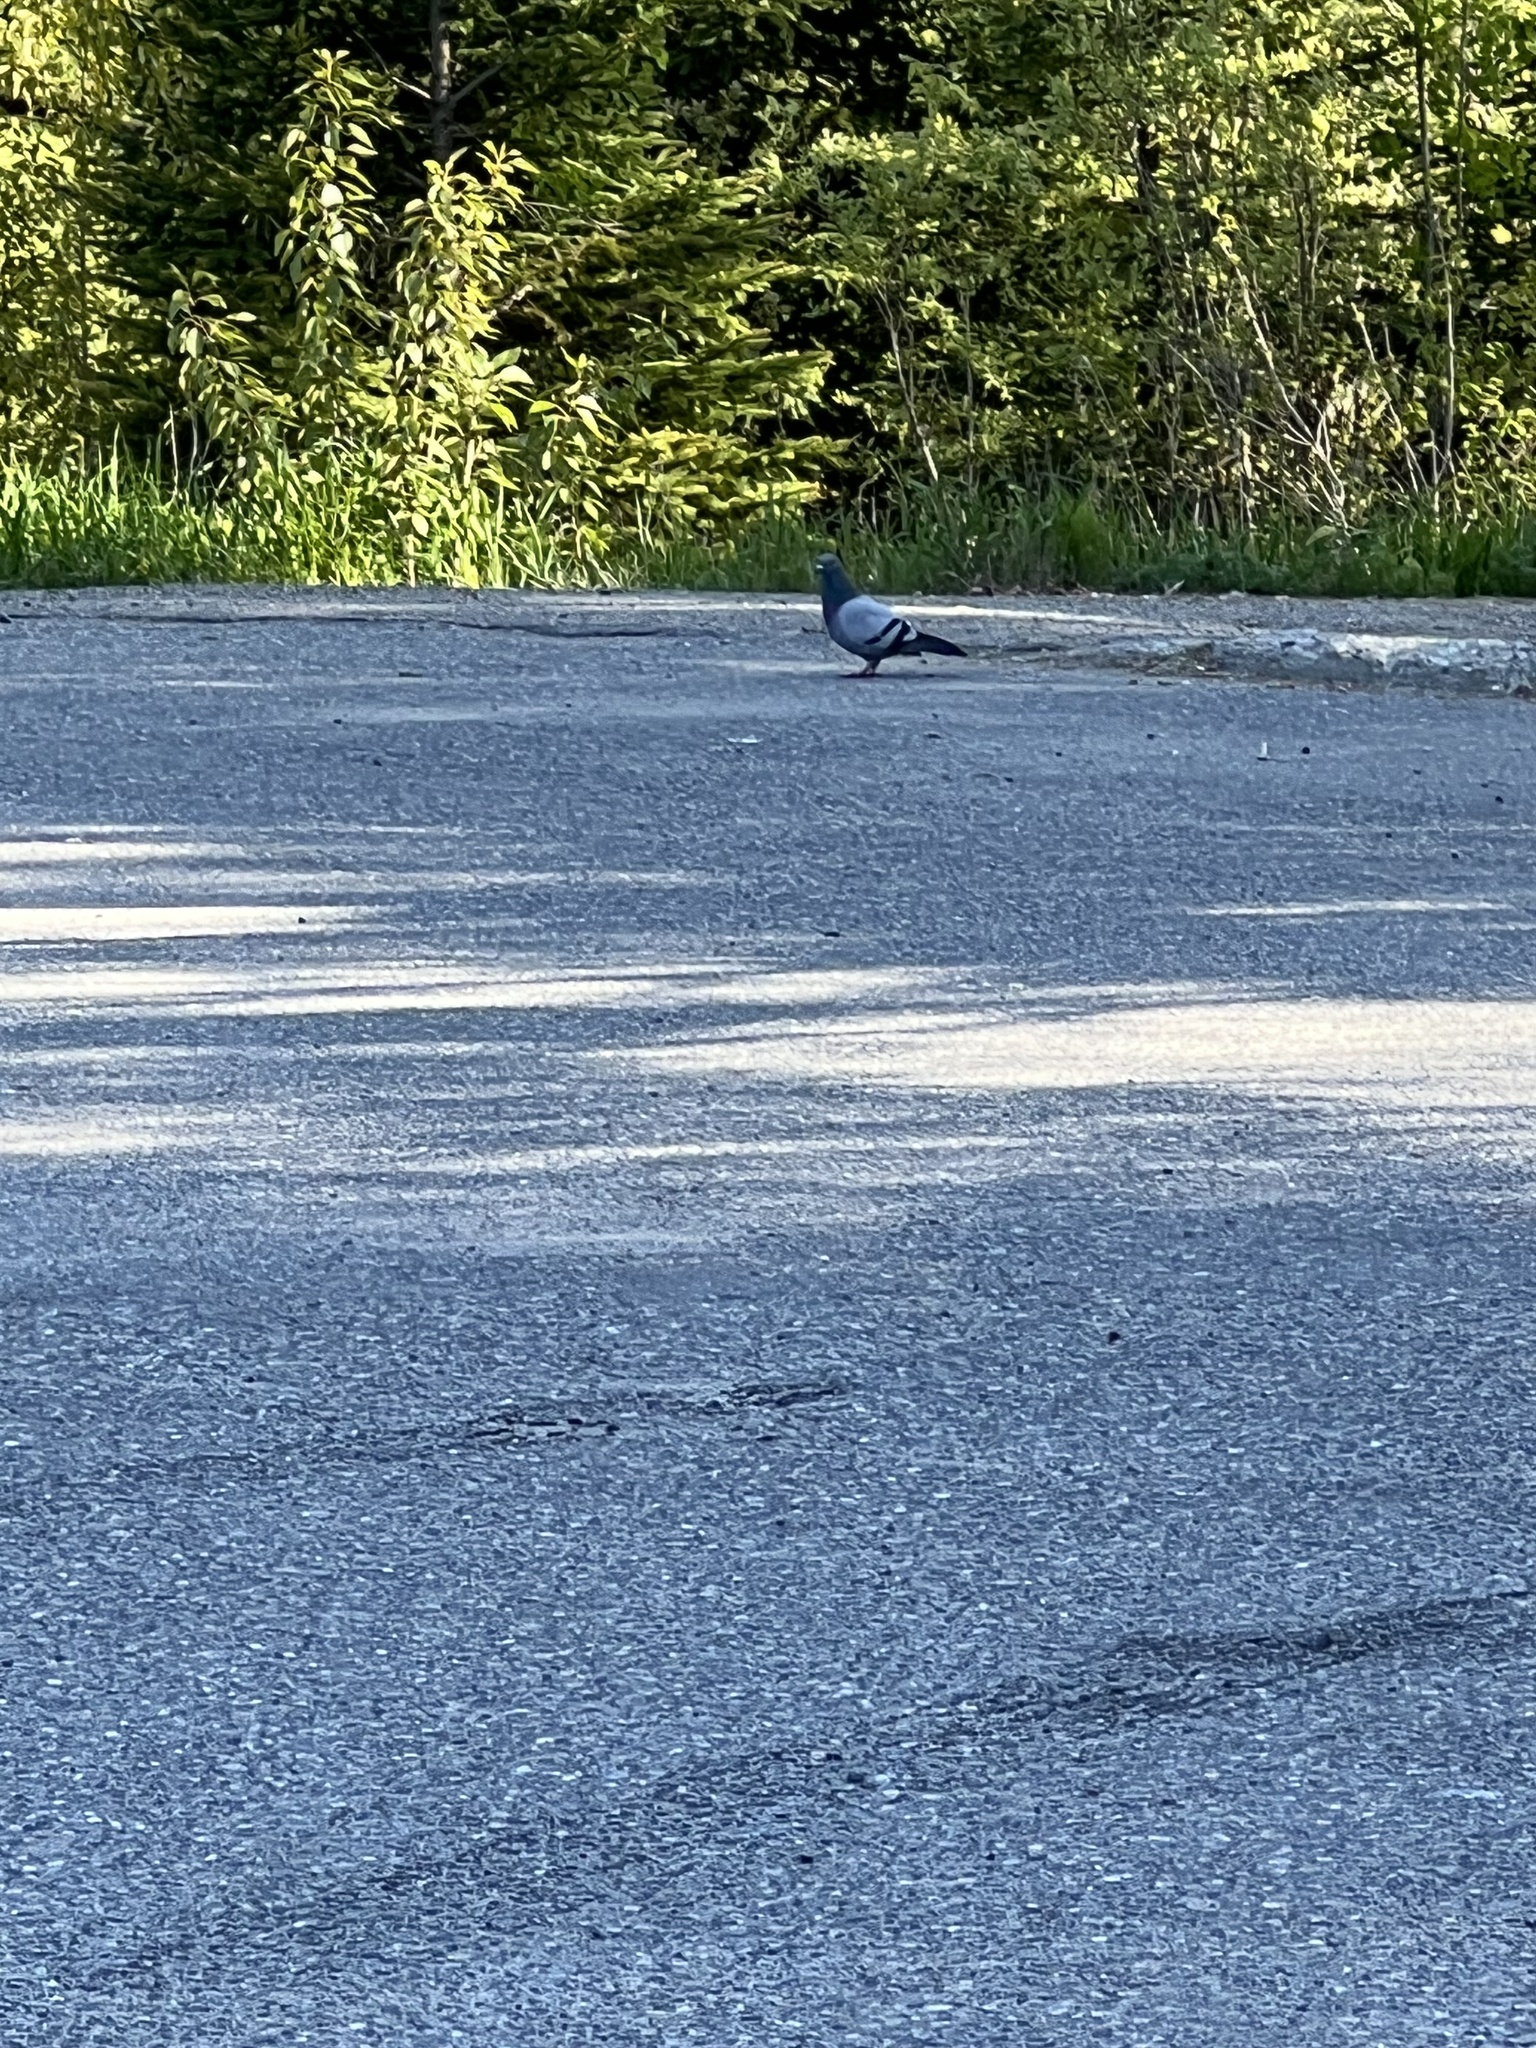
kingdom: Animalia
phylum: Chordata
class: Aves
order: Columbiformes
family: Columbidae
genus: Columba
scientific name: Columba livia
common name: Rock pigeon
